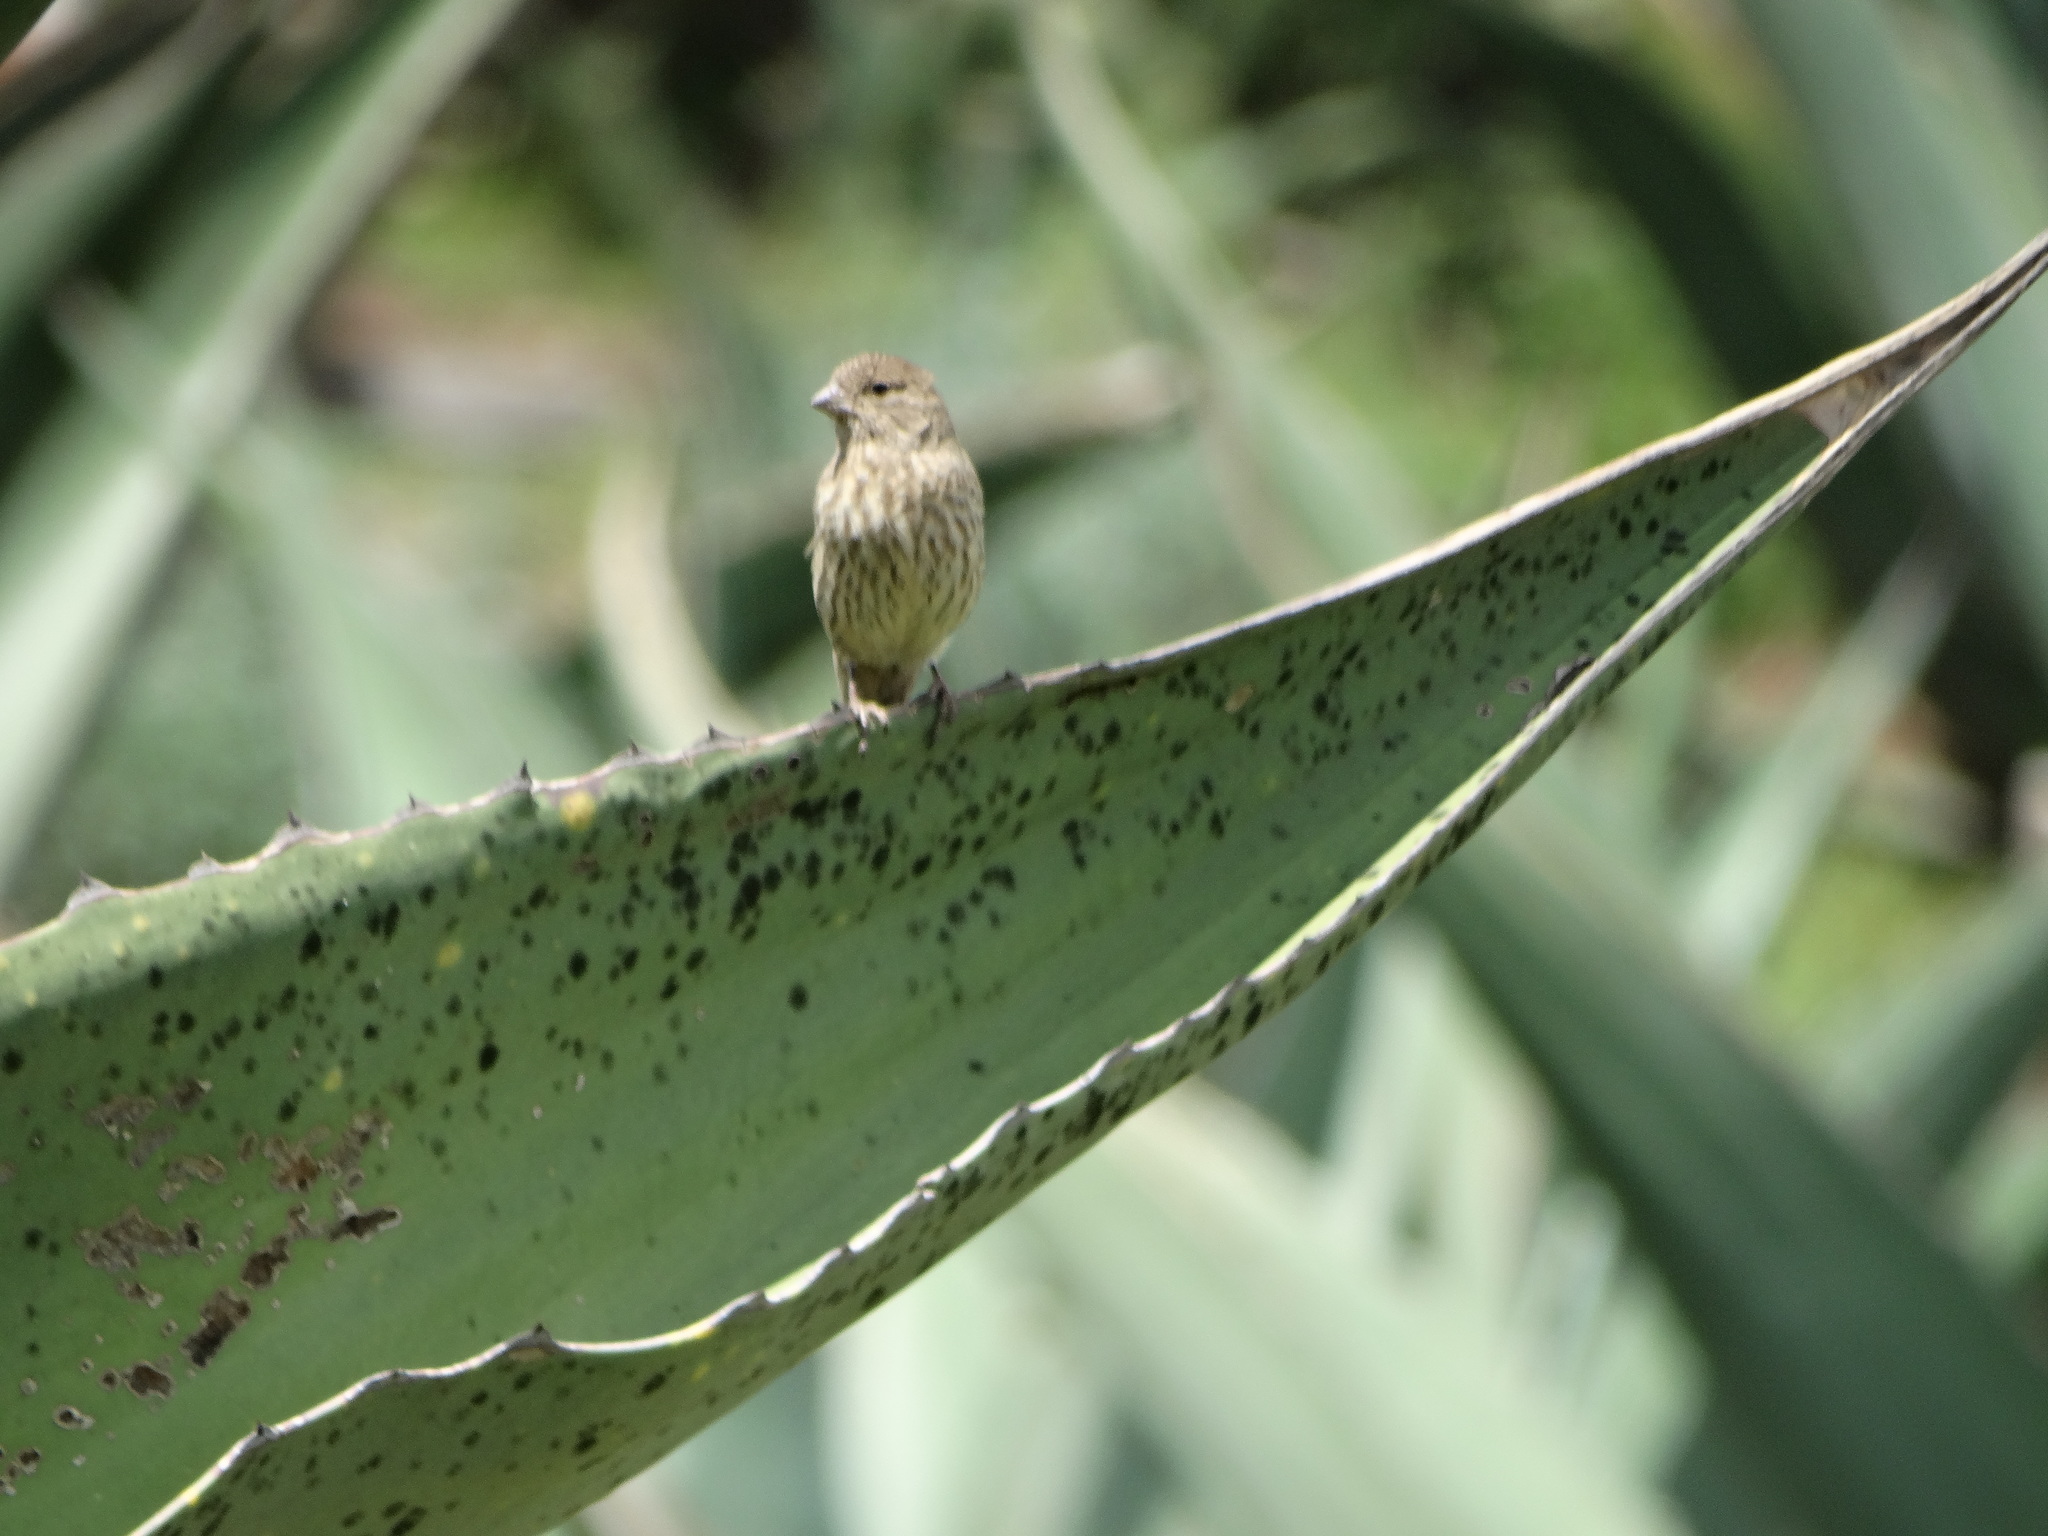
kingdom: Animalia
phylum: Chordata
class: Aves
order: Passeriformes
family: Fringillidae
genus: Haemorhous
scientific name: Haemorhous mexicanus
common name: House finch
